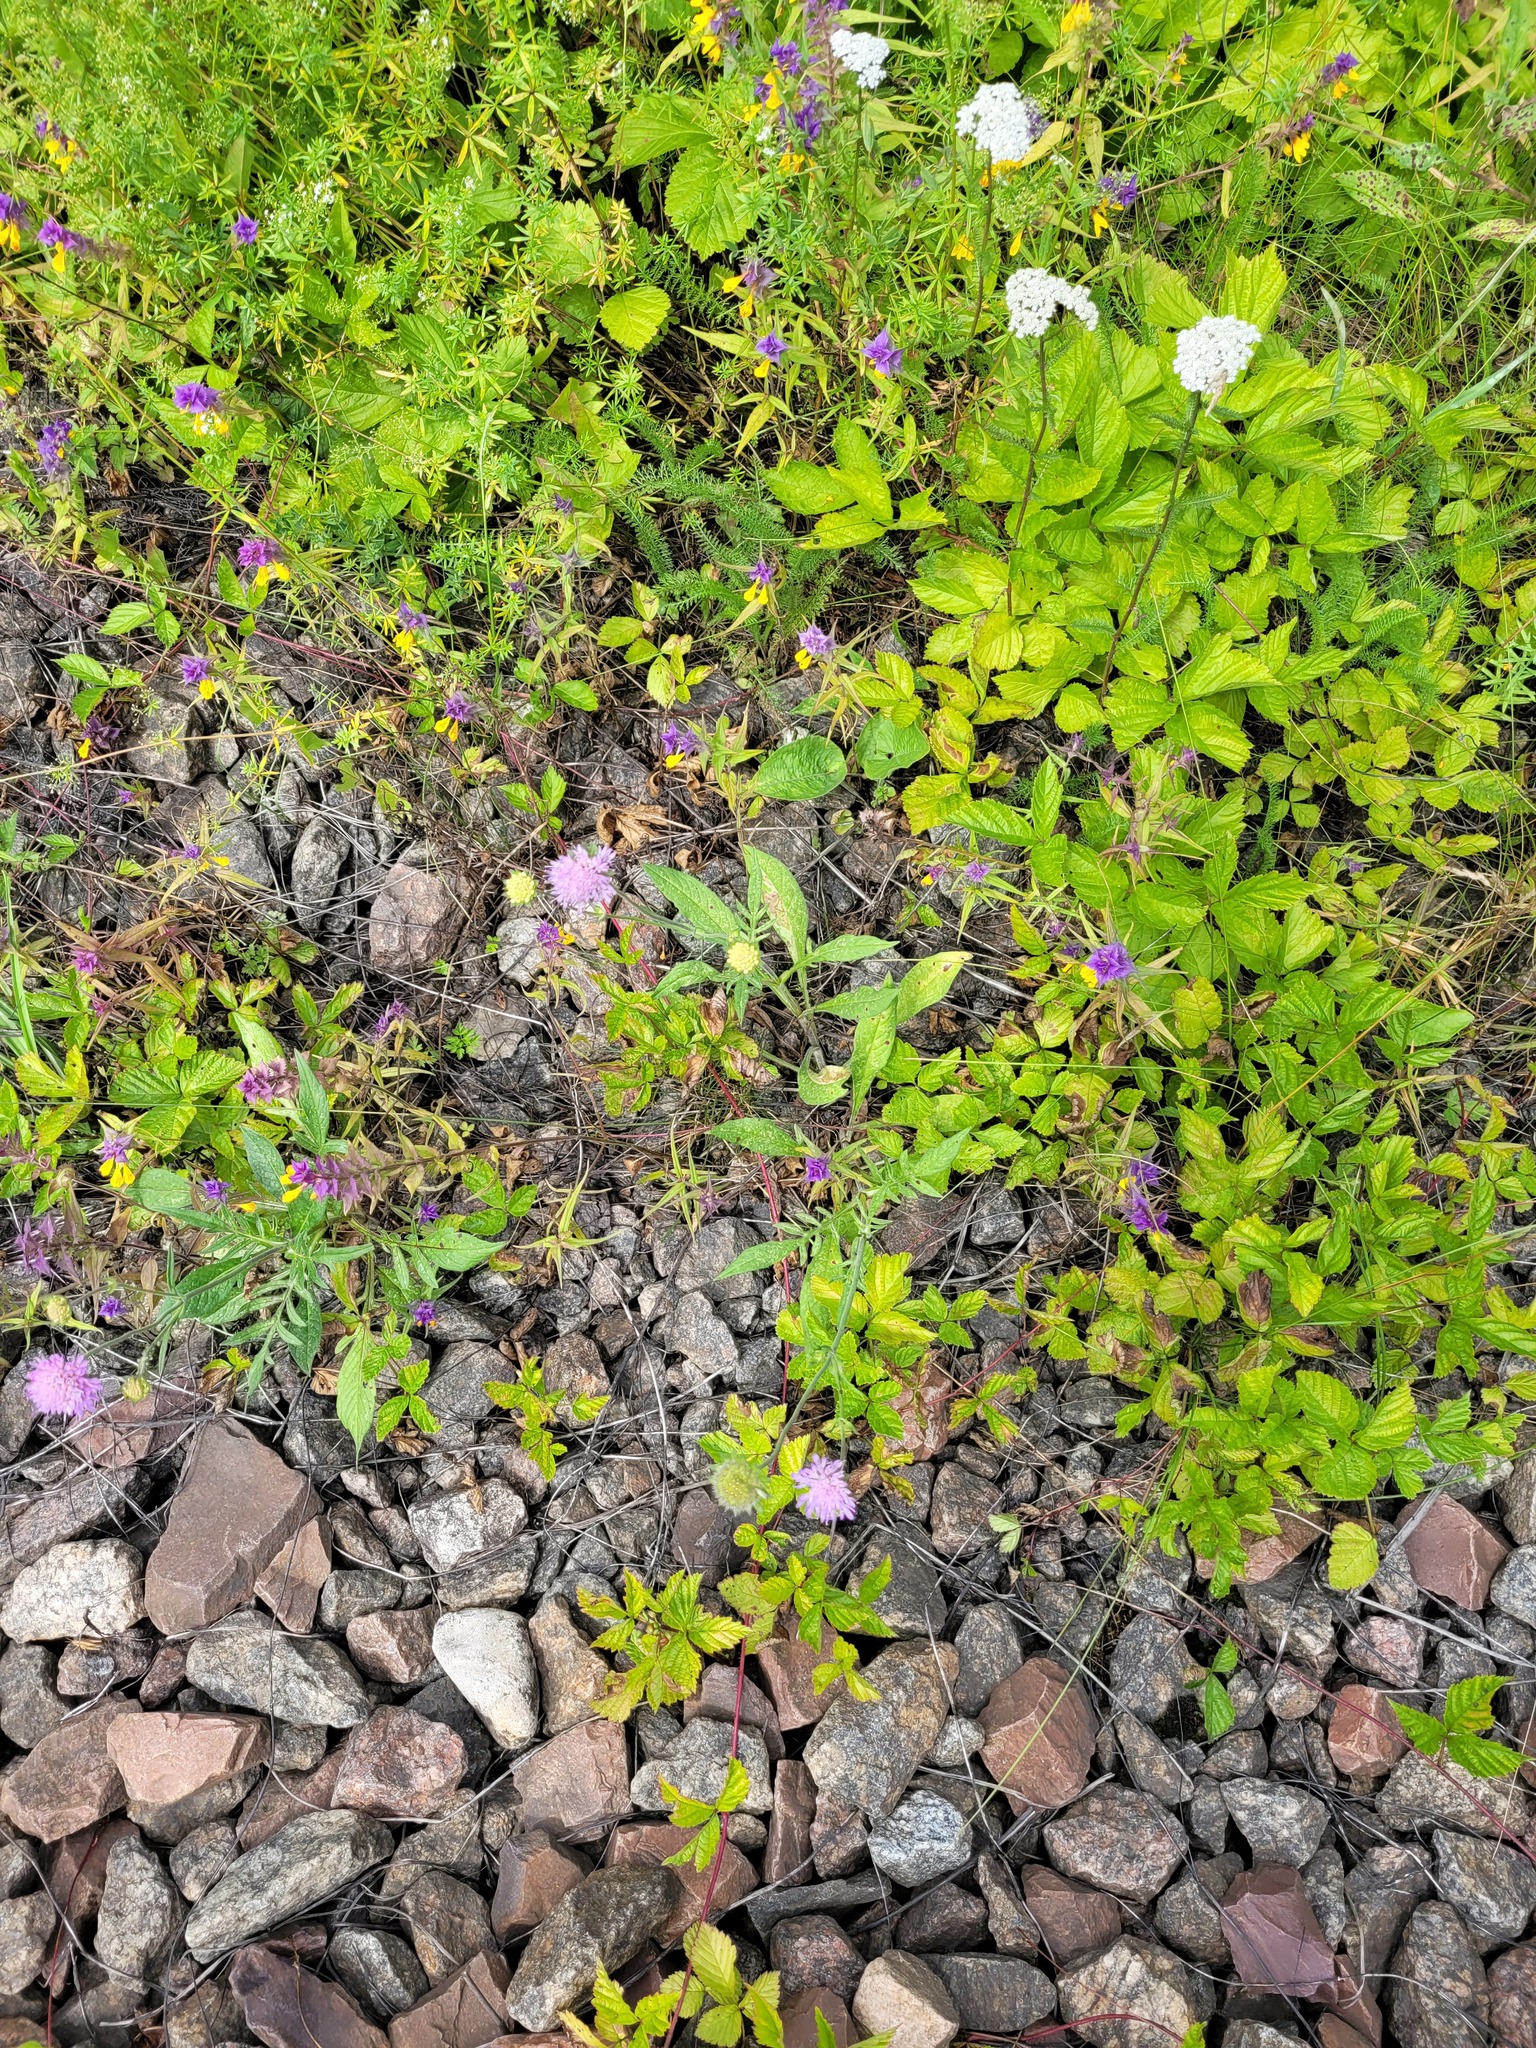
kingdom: Plantae
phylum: Tracheophyta
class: Magnoliopsida
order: Lamiales
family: Orobanchaceae
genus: Melampyrum
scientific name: Melampyrum nemorosum
